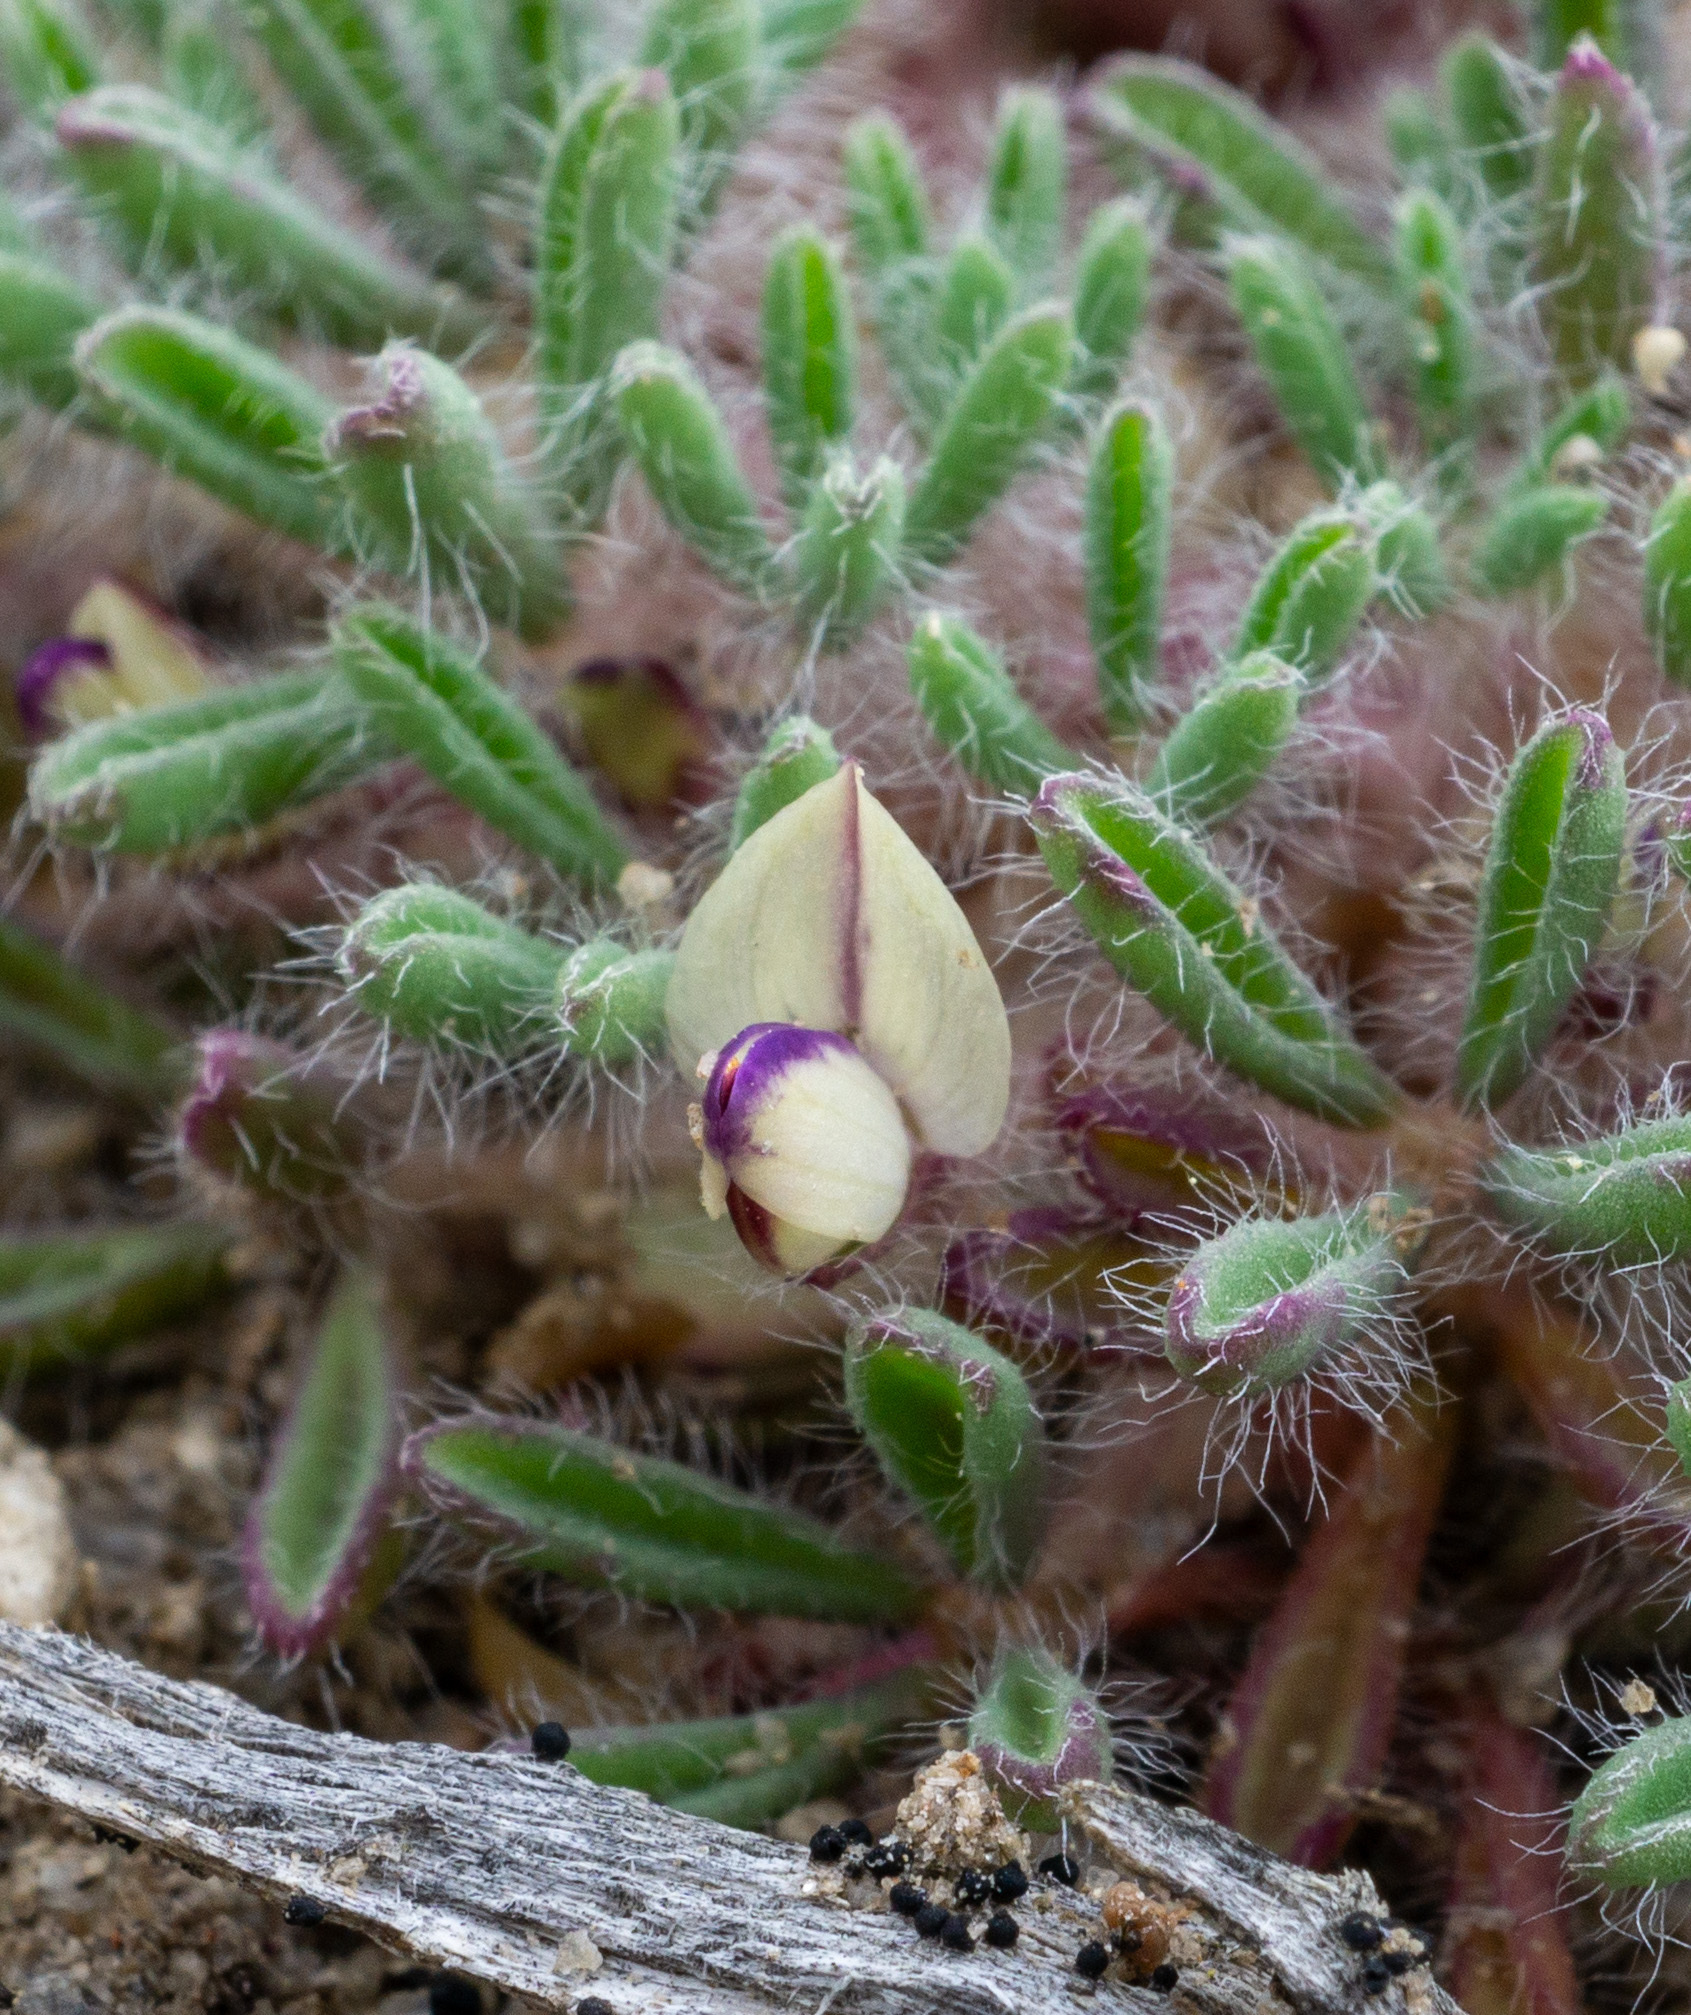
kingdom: Plantae
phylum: Tracheophyta
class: Magnoliopsida
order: Fabales
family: Fabaceae
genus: Lupinus
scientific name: Lupinus uncialis
